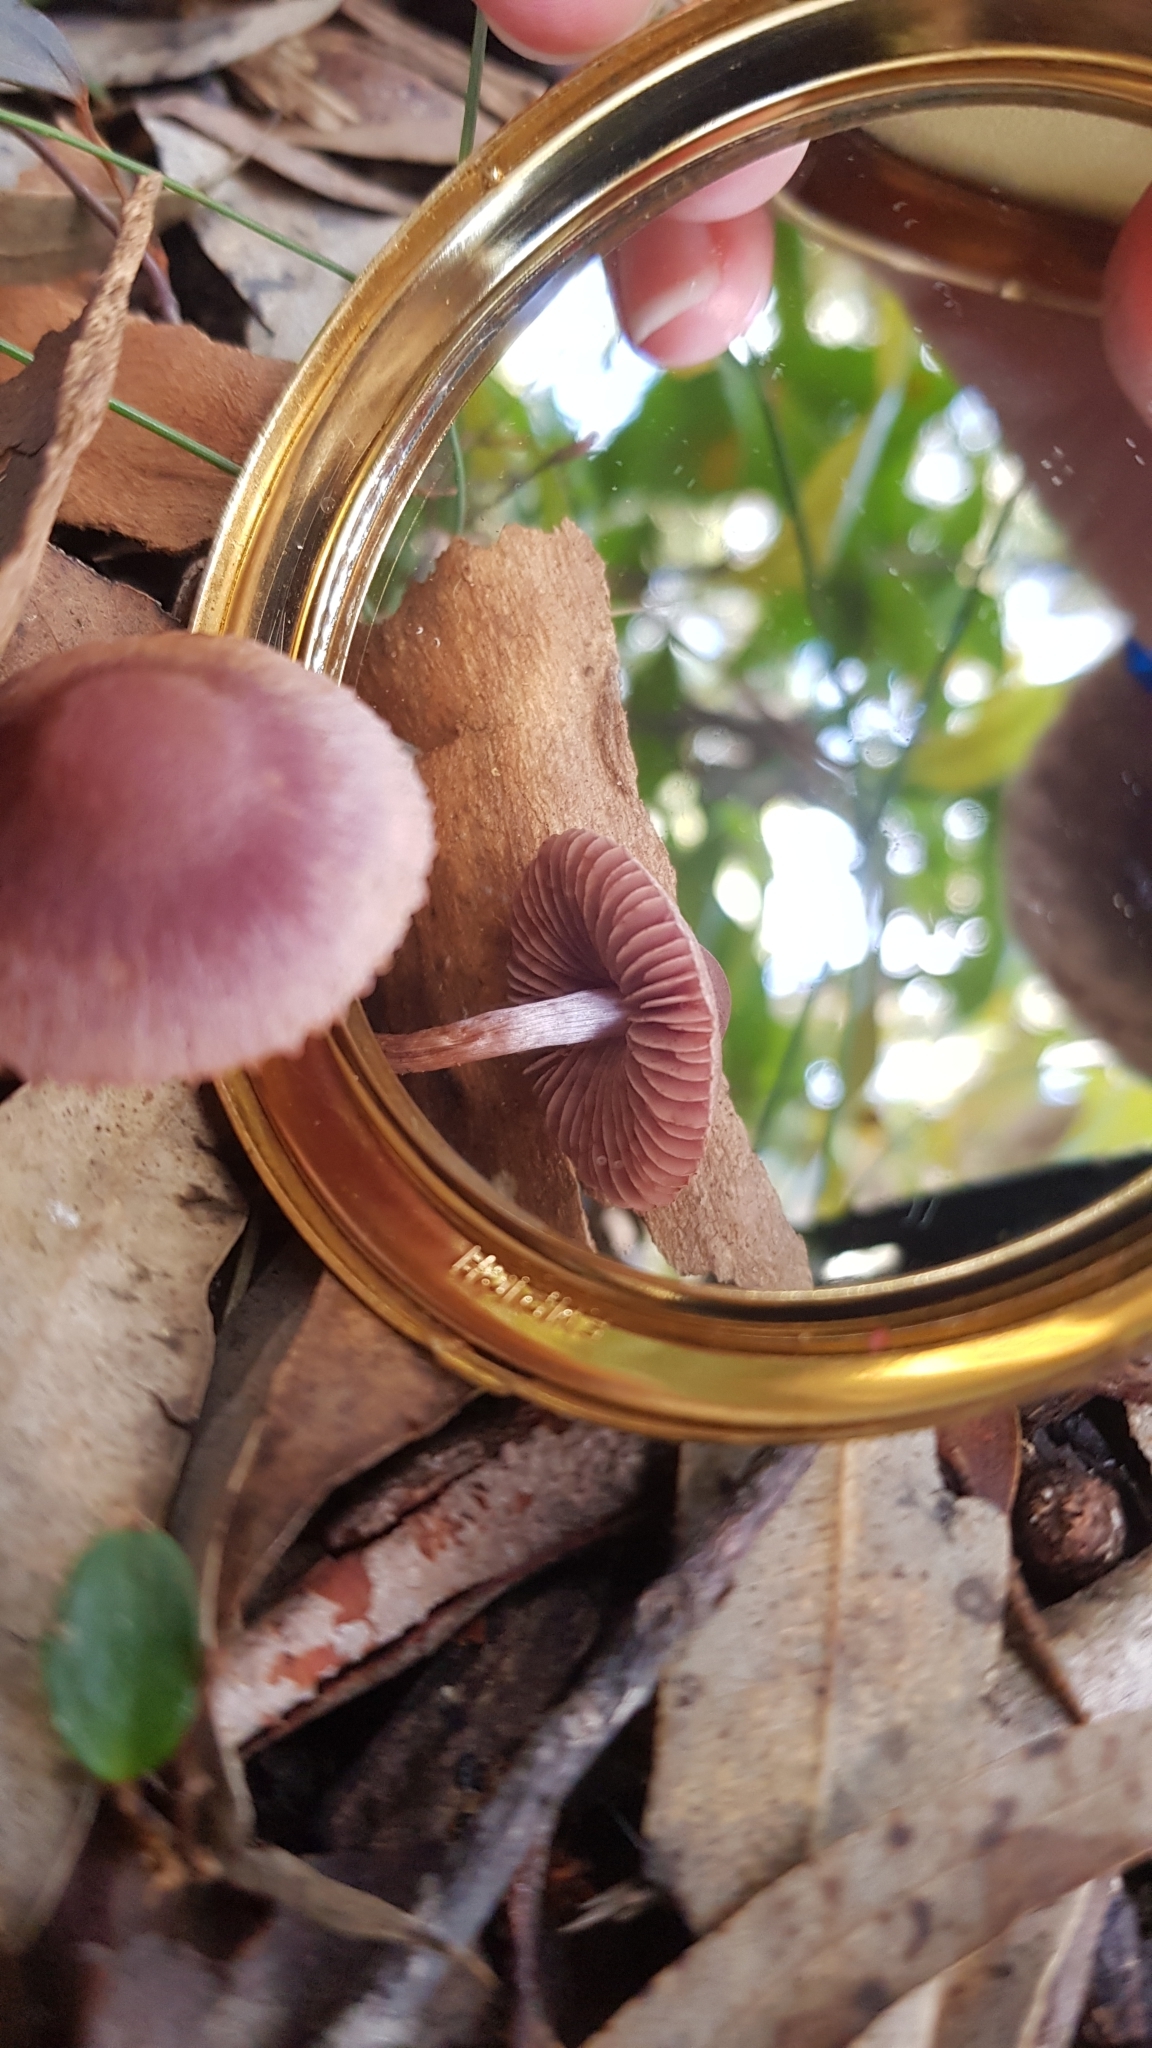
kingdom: Fungi
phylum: Basidiomycota
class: Agaricomycetes
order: Agaricales
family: Cortinariaceae
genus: Thaxterogaster
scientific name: Thaxterogaster submagellanicus
